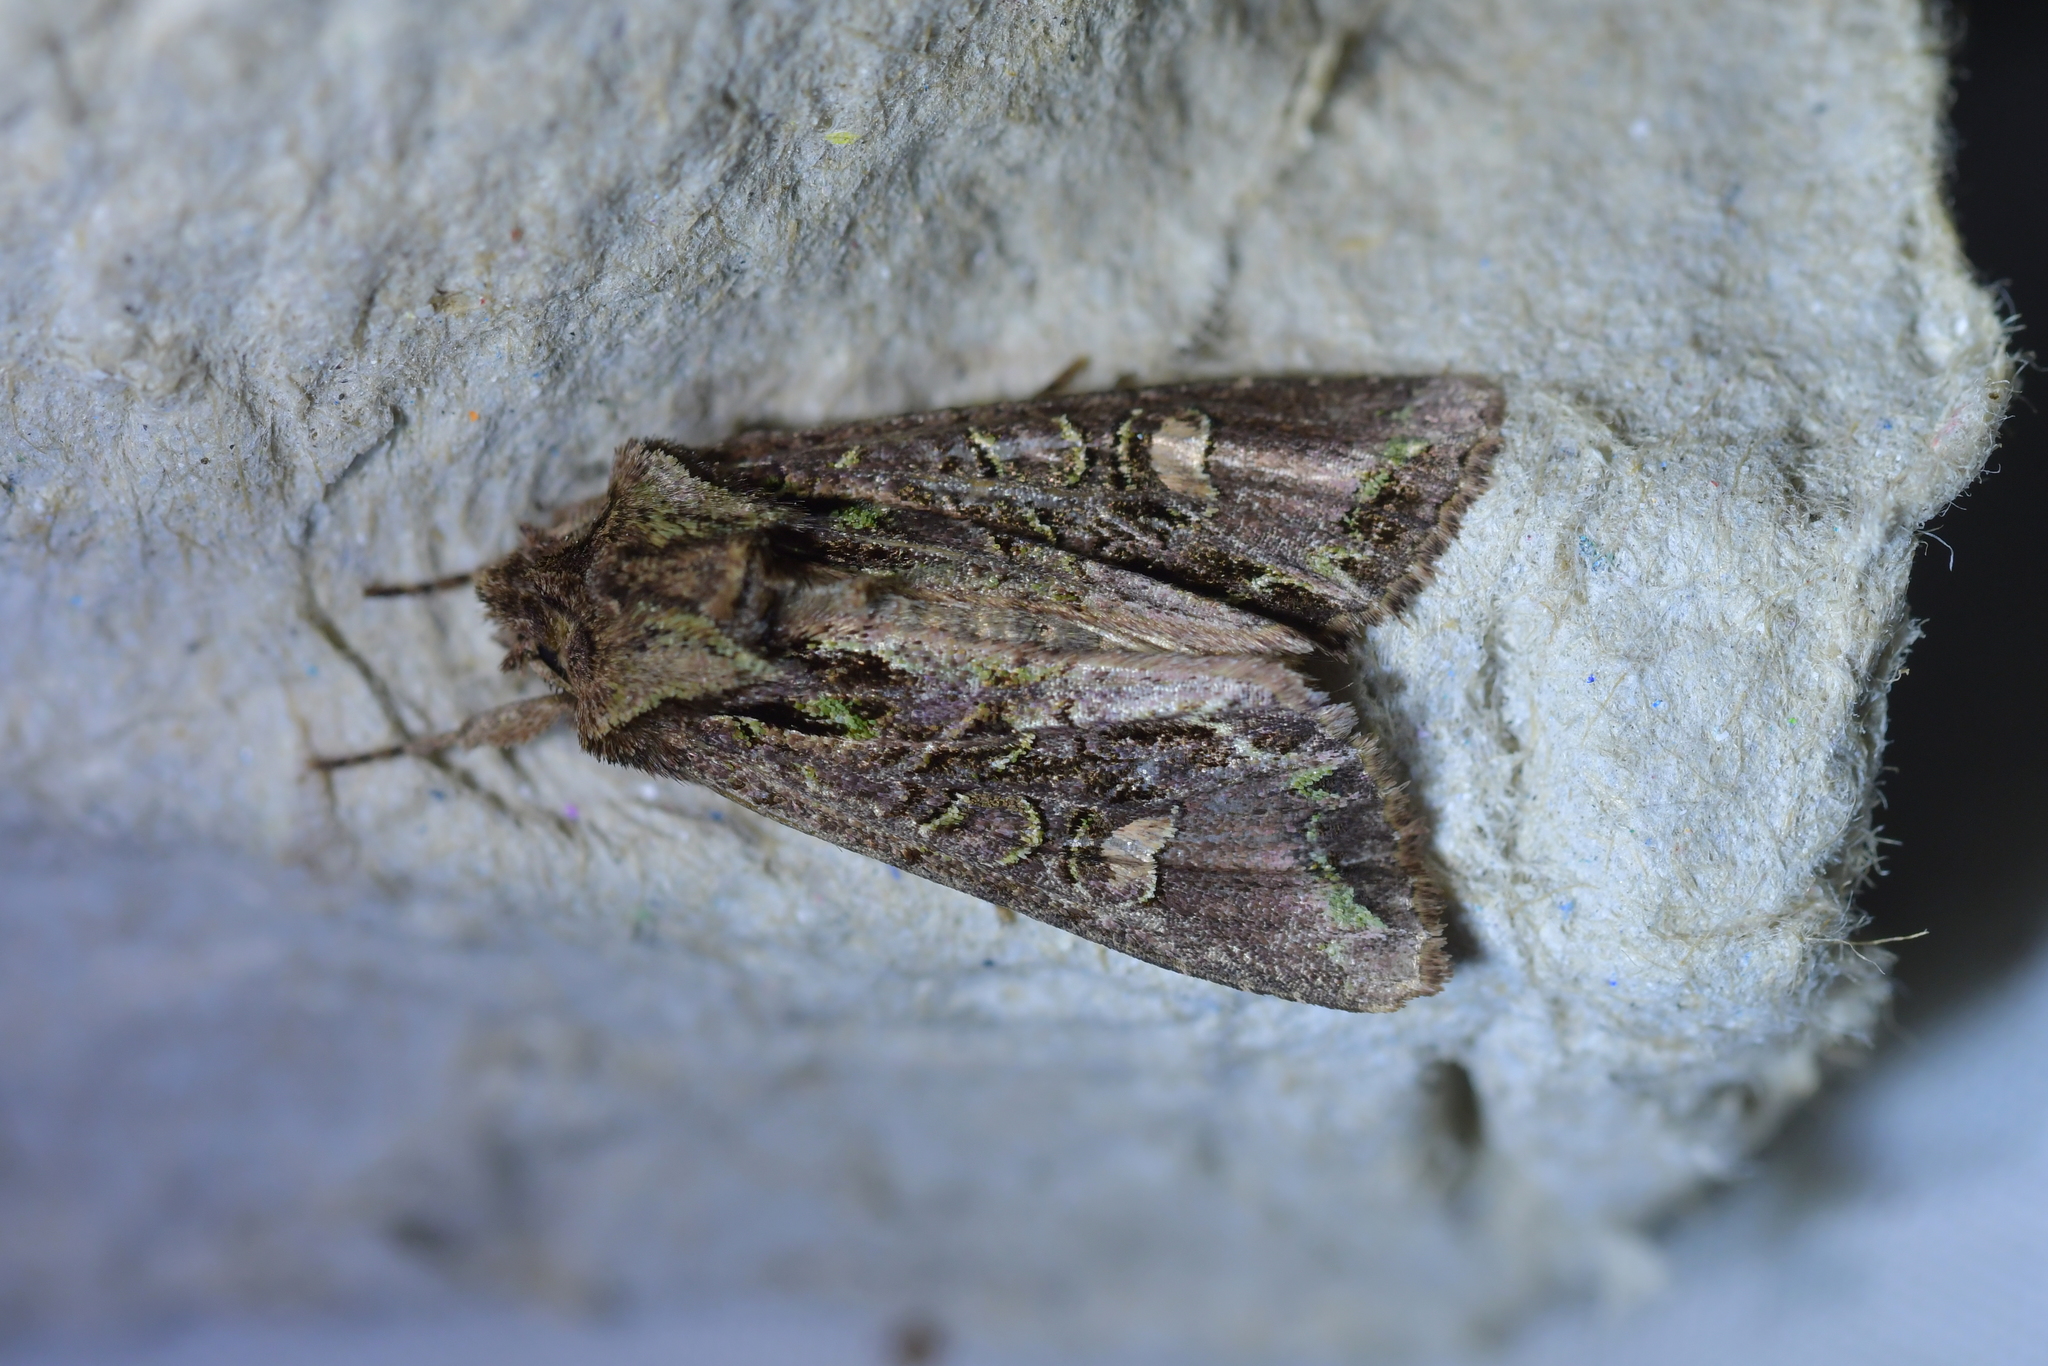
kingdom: Animalia
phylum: Arthropoda
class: Insecta
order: Lepidoptera
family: Noctuidae
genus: Ichneutica
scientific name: Ichneutica insignis
